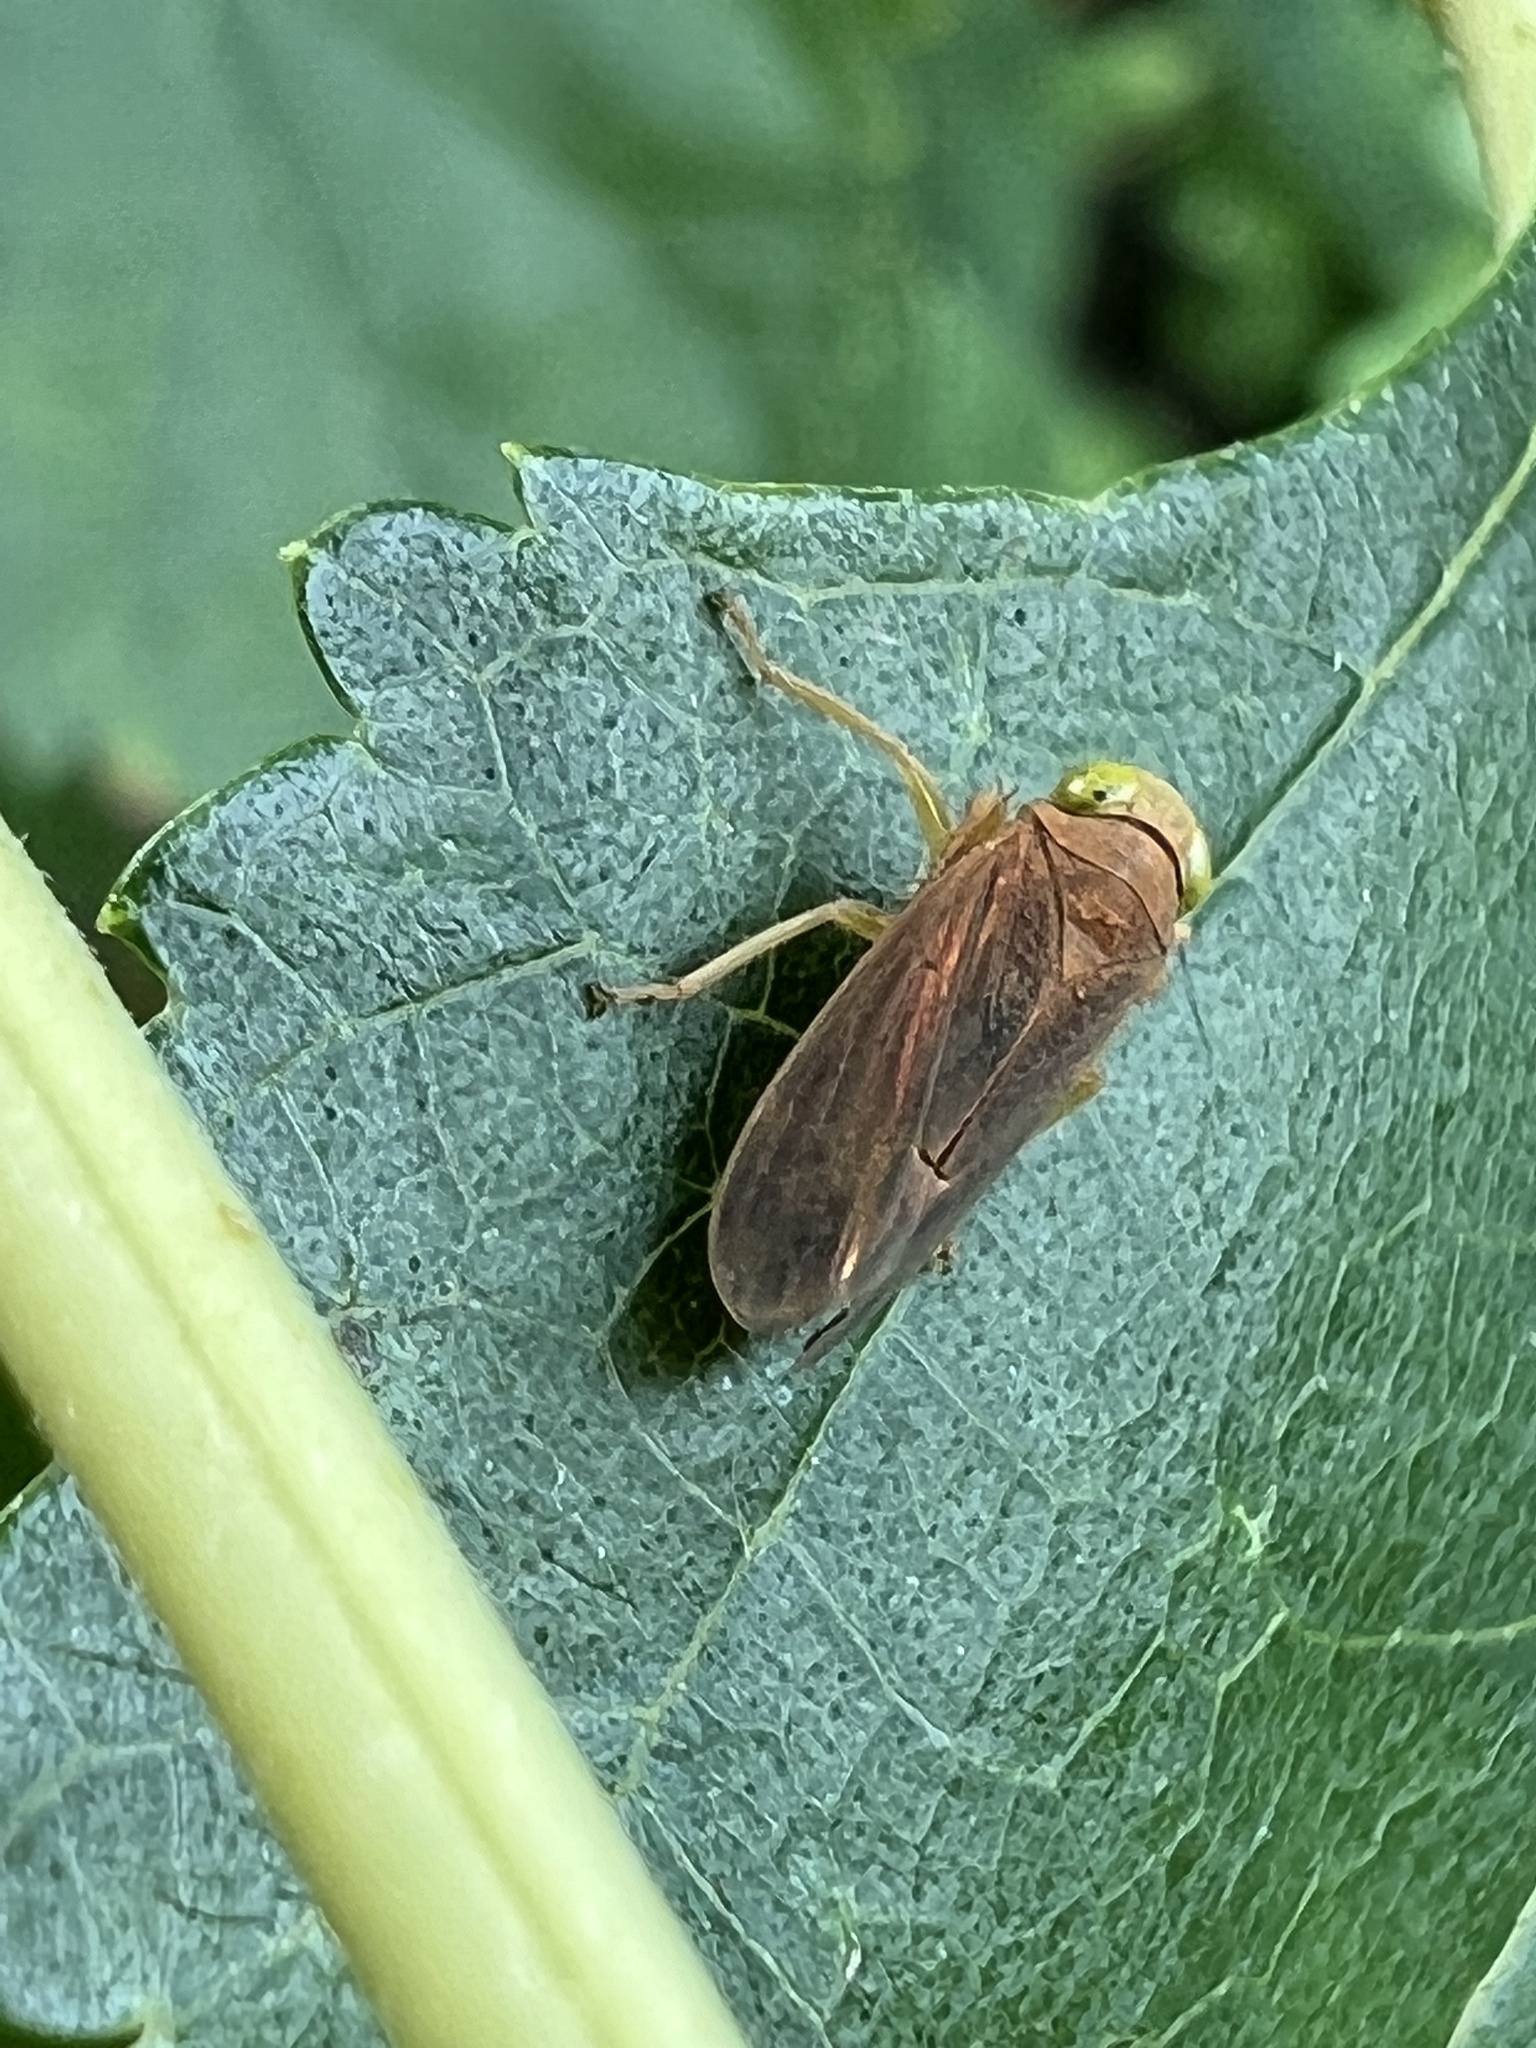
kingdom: Animalia
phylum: Arthropoda
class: Insecta
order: Hemiptera
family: Cicadellidae
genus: Jikradia
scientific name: Jikradia olitoria
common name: Coppery leafhopper
